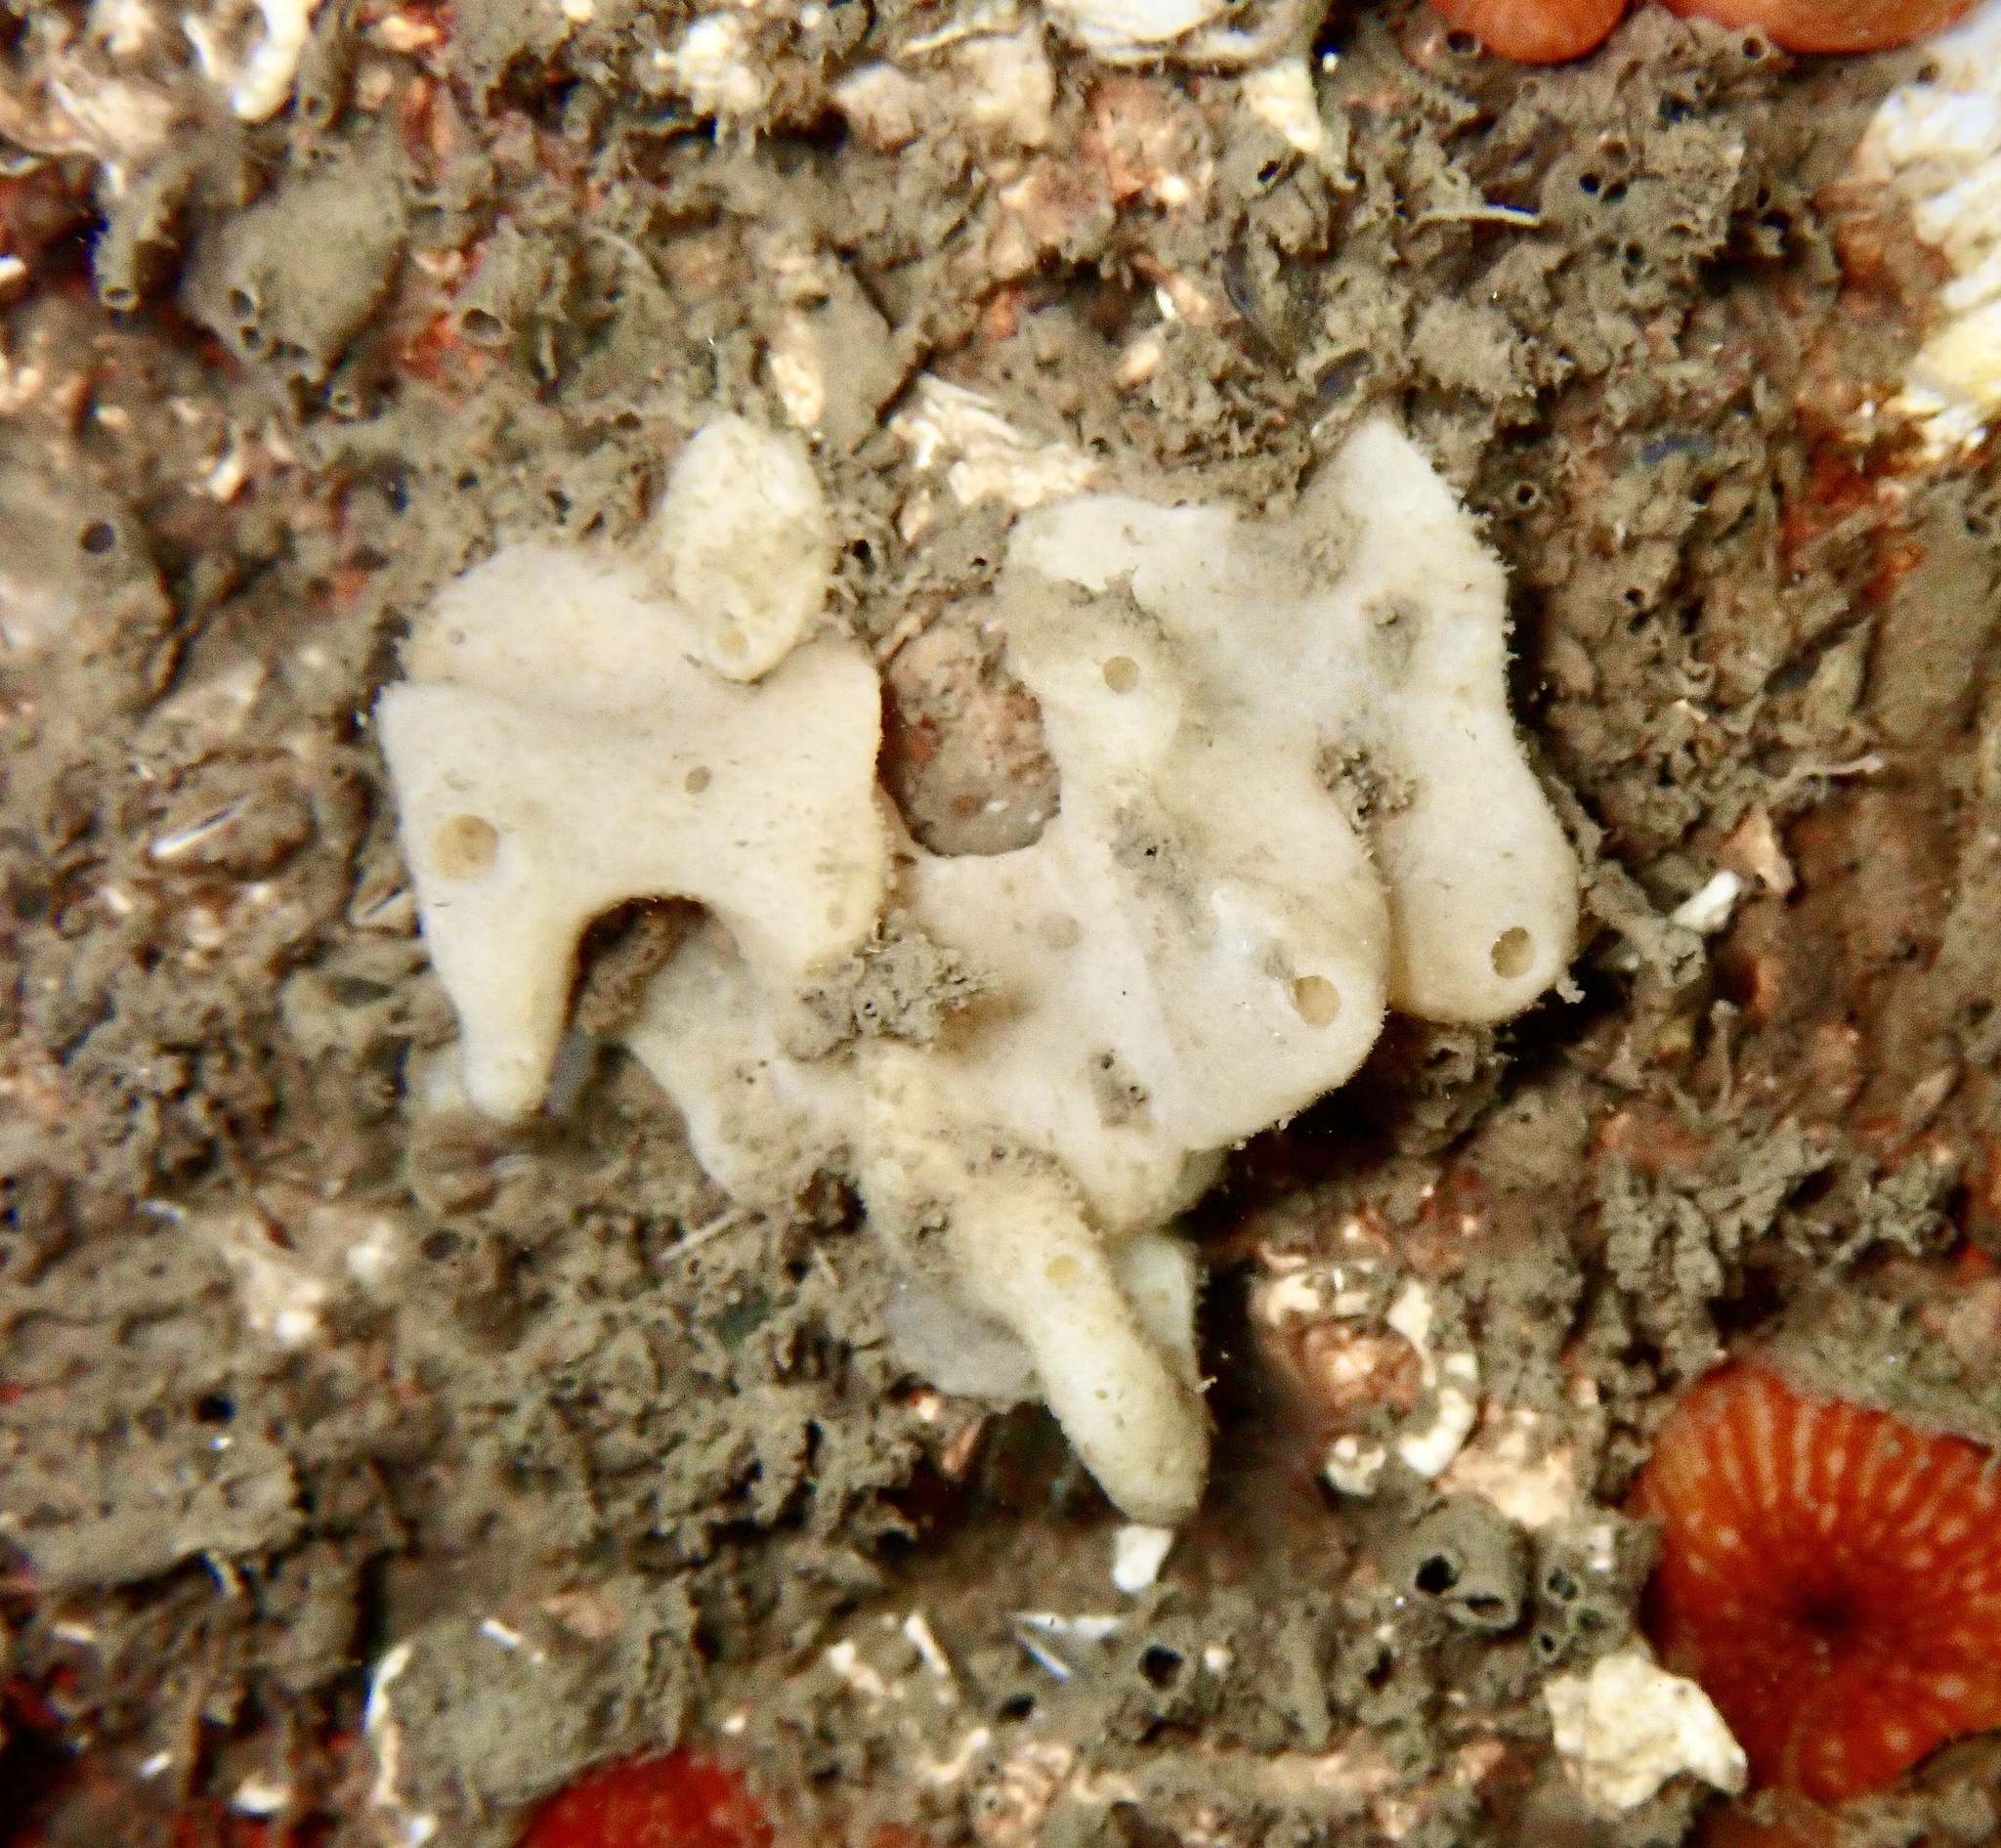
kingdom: Animalia
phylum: Porifera
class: Calcarea
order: Baerida
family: Baeriidae
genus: Leuconia
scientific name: Leuconia nivea
